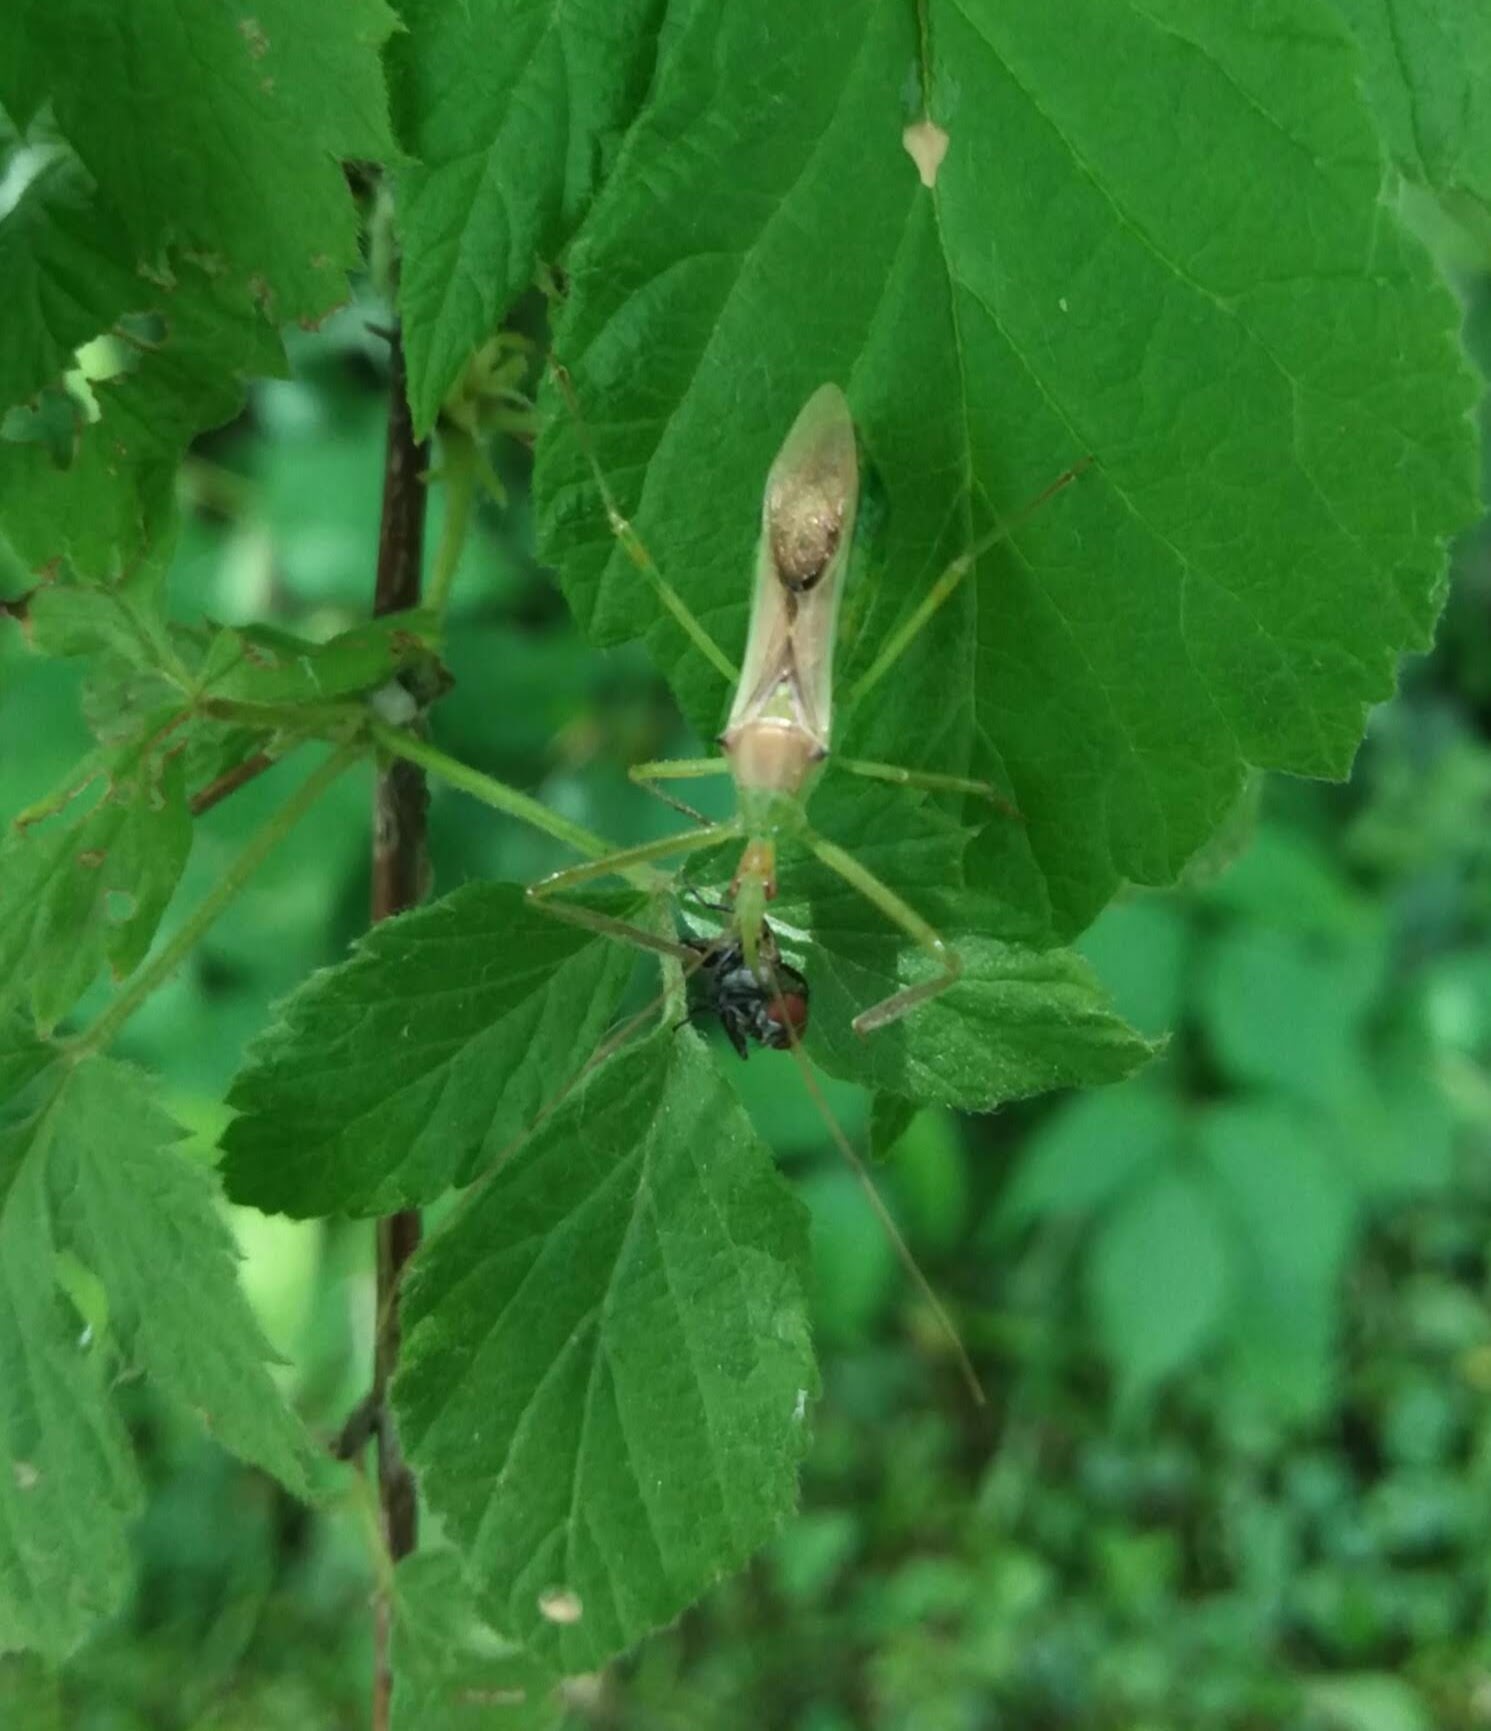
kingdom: Animalia
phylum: Arthropoda
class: Insecta
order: Hemiptera
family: Reduviidae
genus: Zelus
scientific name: Zelus luridus
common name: Pale green assassin bug
